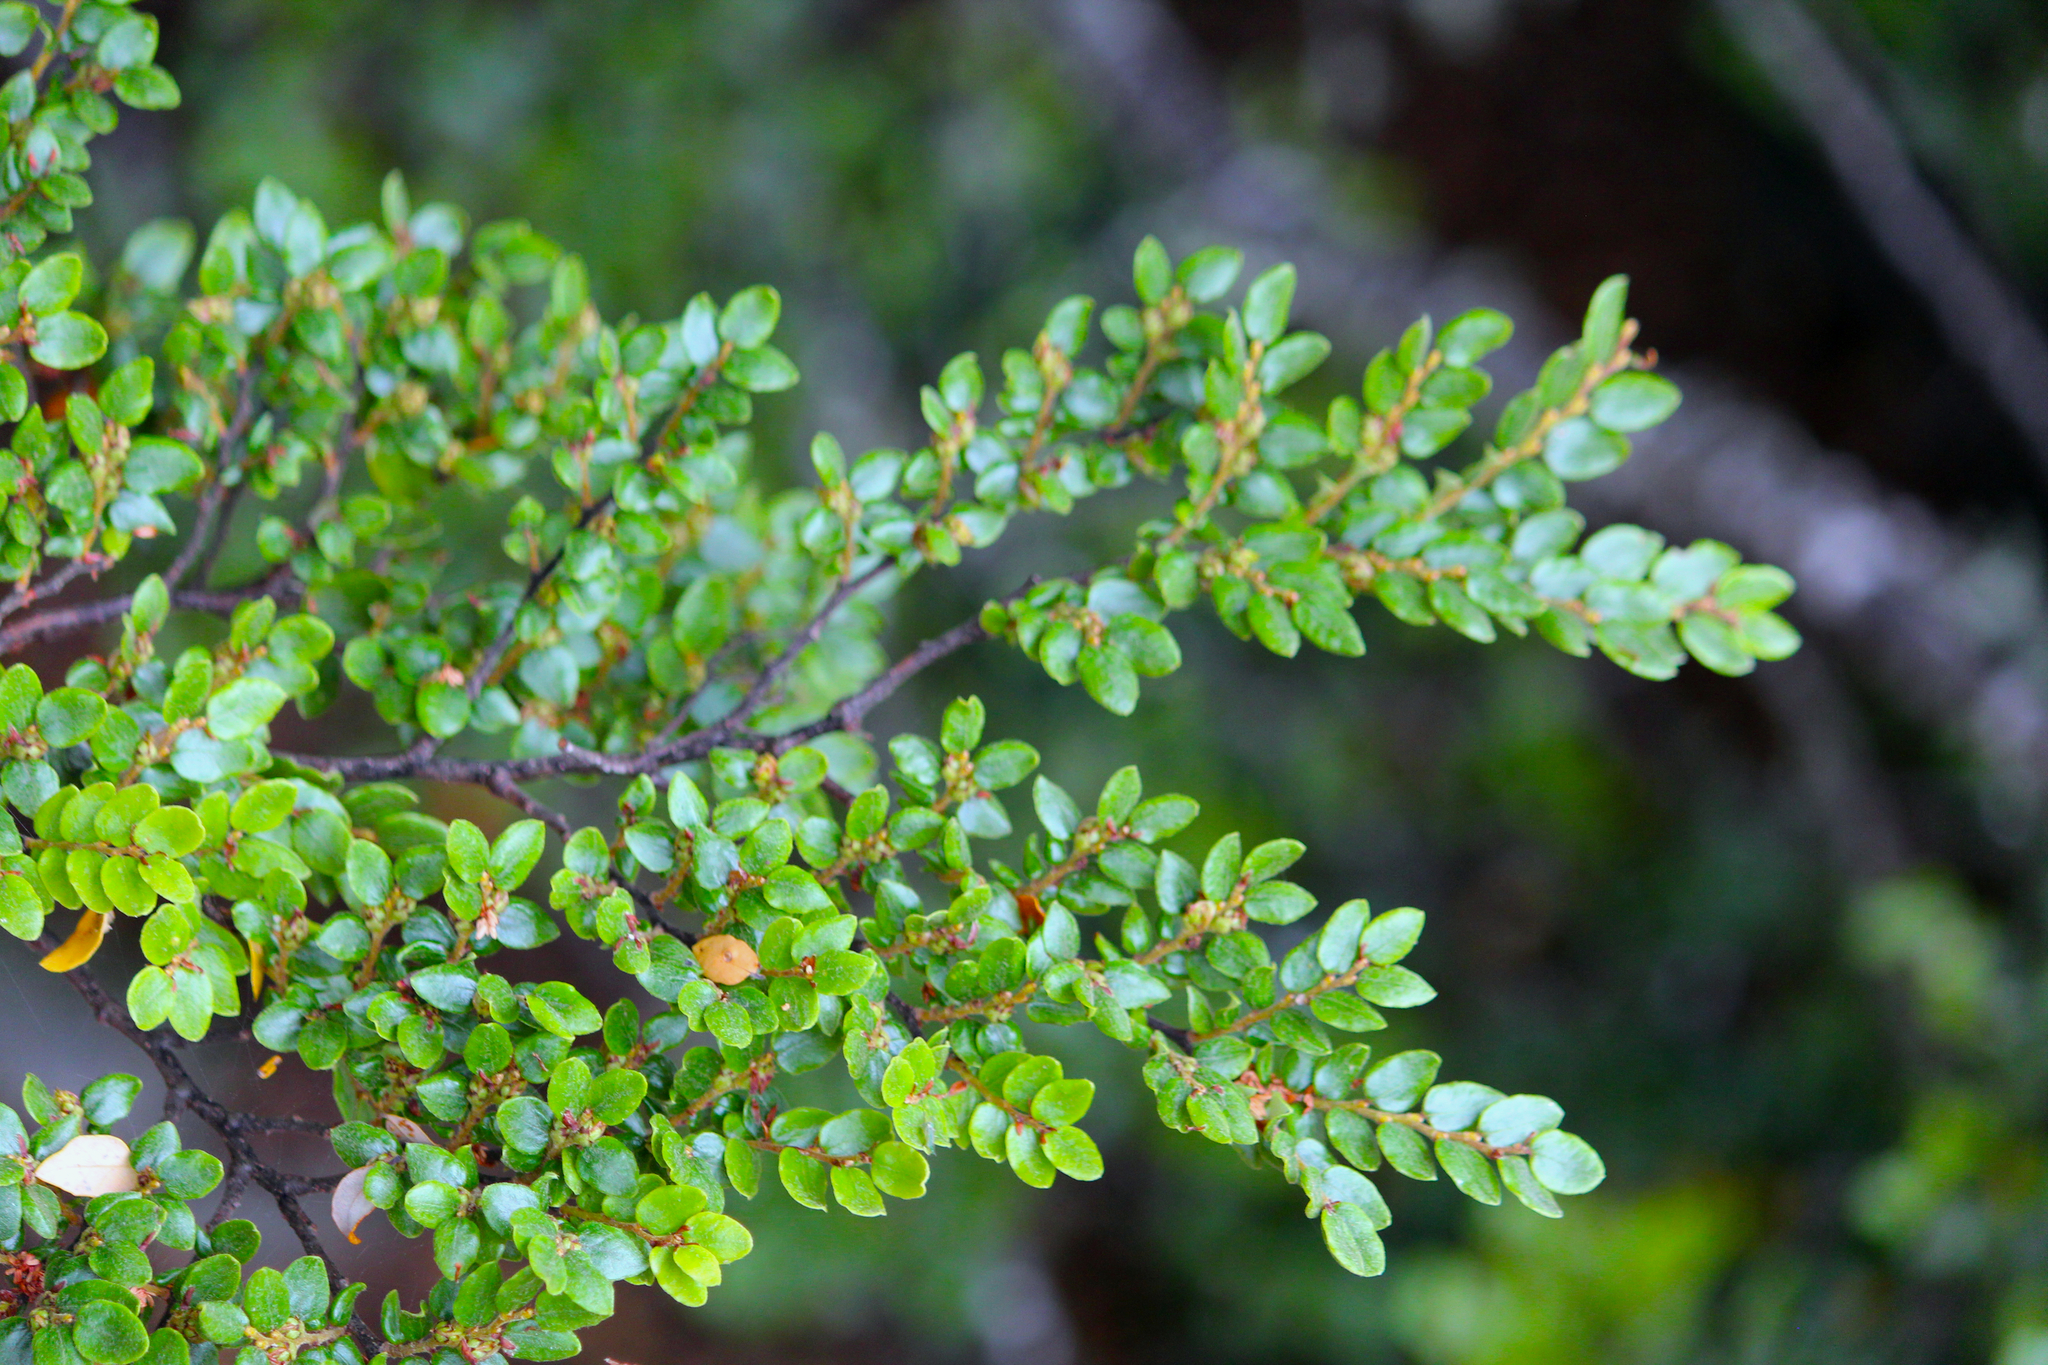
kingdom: Plantae
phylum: Tracheophyta
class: Magnoliopsida
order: Fagales
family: Nothofagaceae
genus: Nothofagus
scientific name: Nothofagus cliffortioides
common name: Mountain beech
